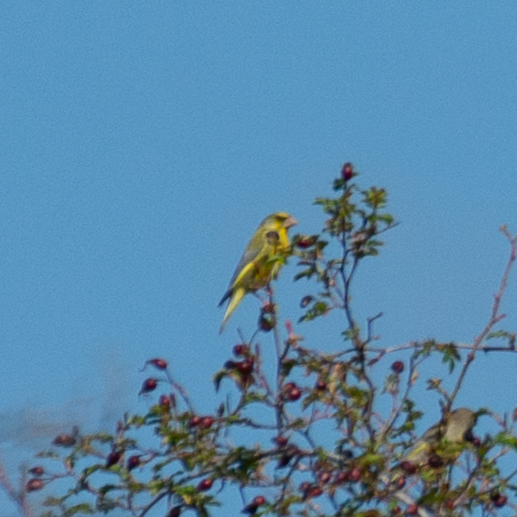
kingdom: Plantae
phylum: Tracheophyta
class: Liliopsida
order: Poales
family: Poaceae
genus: Chloris
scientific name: Chloris chloris
